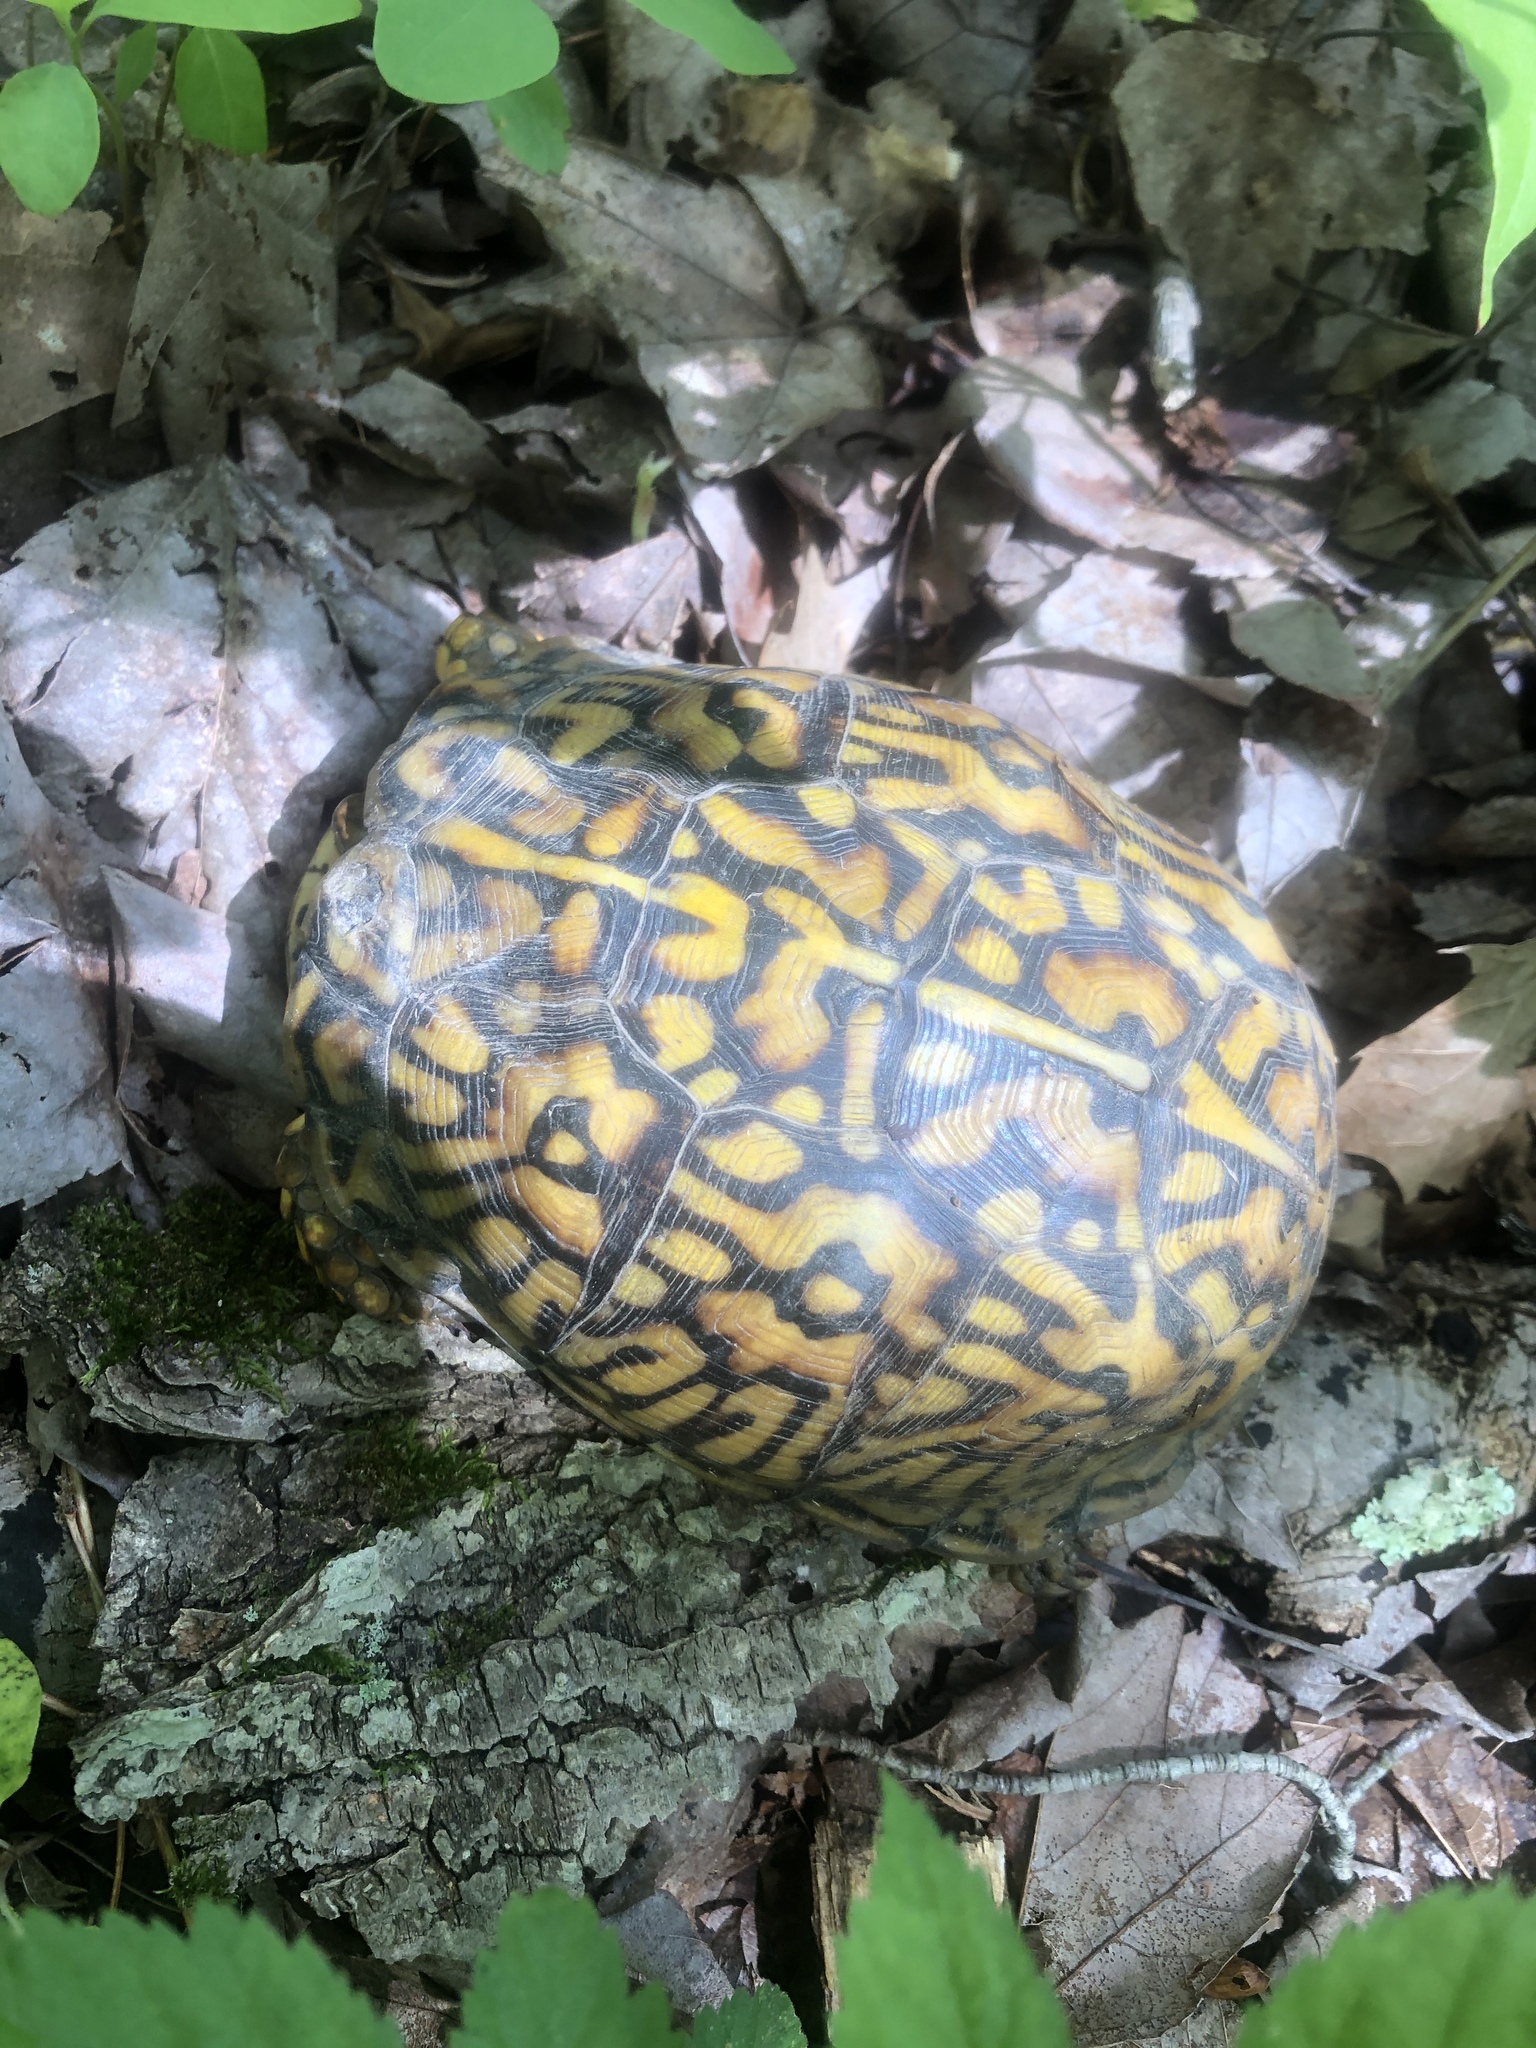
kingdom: Animalia
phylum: Chordata
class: Testudines
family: Emydidae
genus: Terrapene
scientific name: Terrapene carolina
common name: Common box turtle
